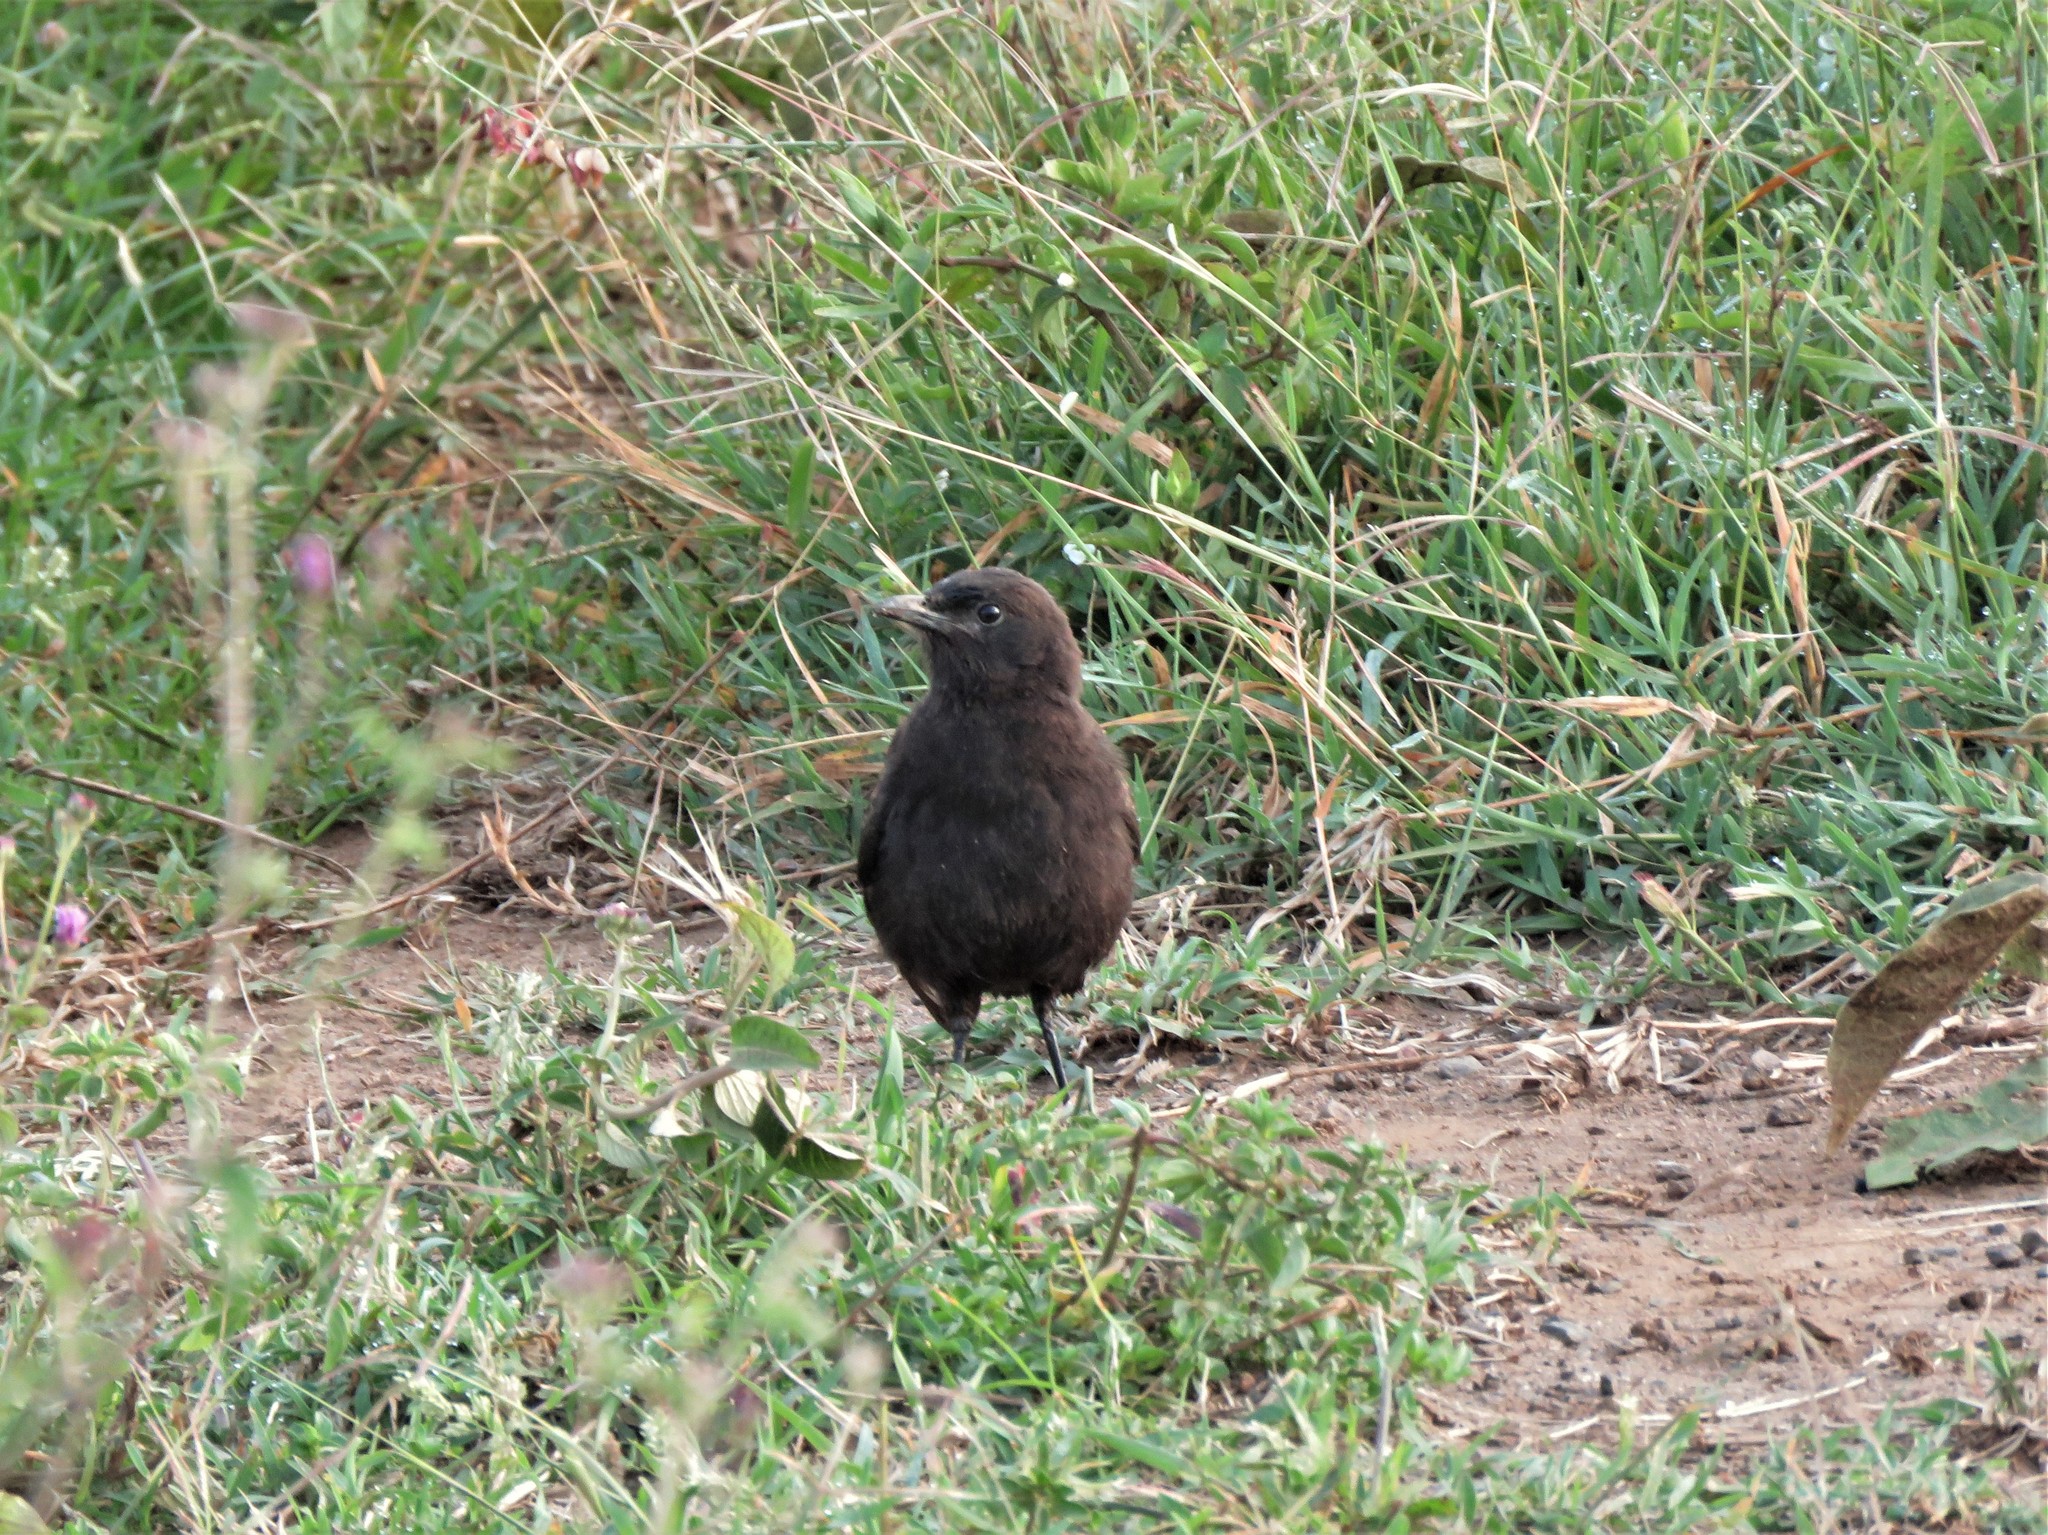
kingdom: Animalia
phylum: Chordata
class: Aves
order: Passeriformes
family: Muscicapidae
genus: Myrmecocichla
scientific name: Myrmecocichla aethiops
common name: Anteater chat
